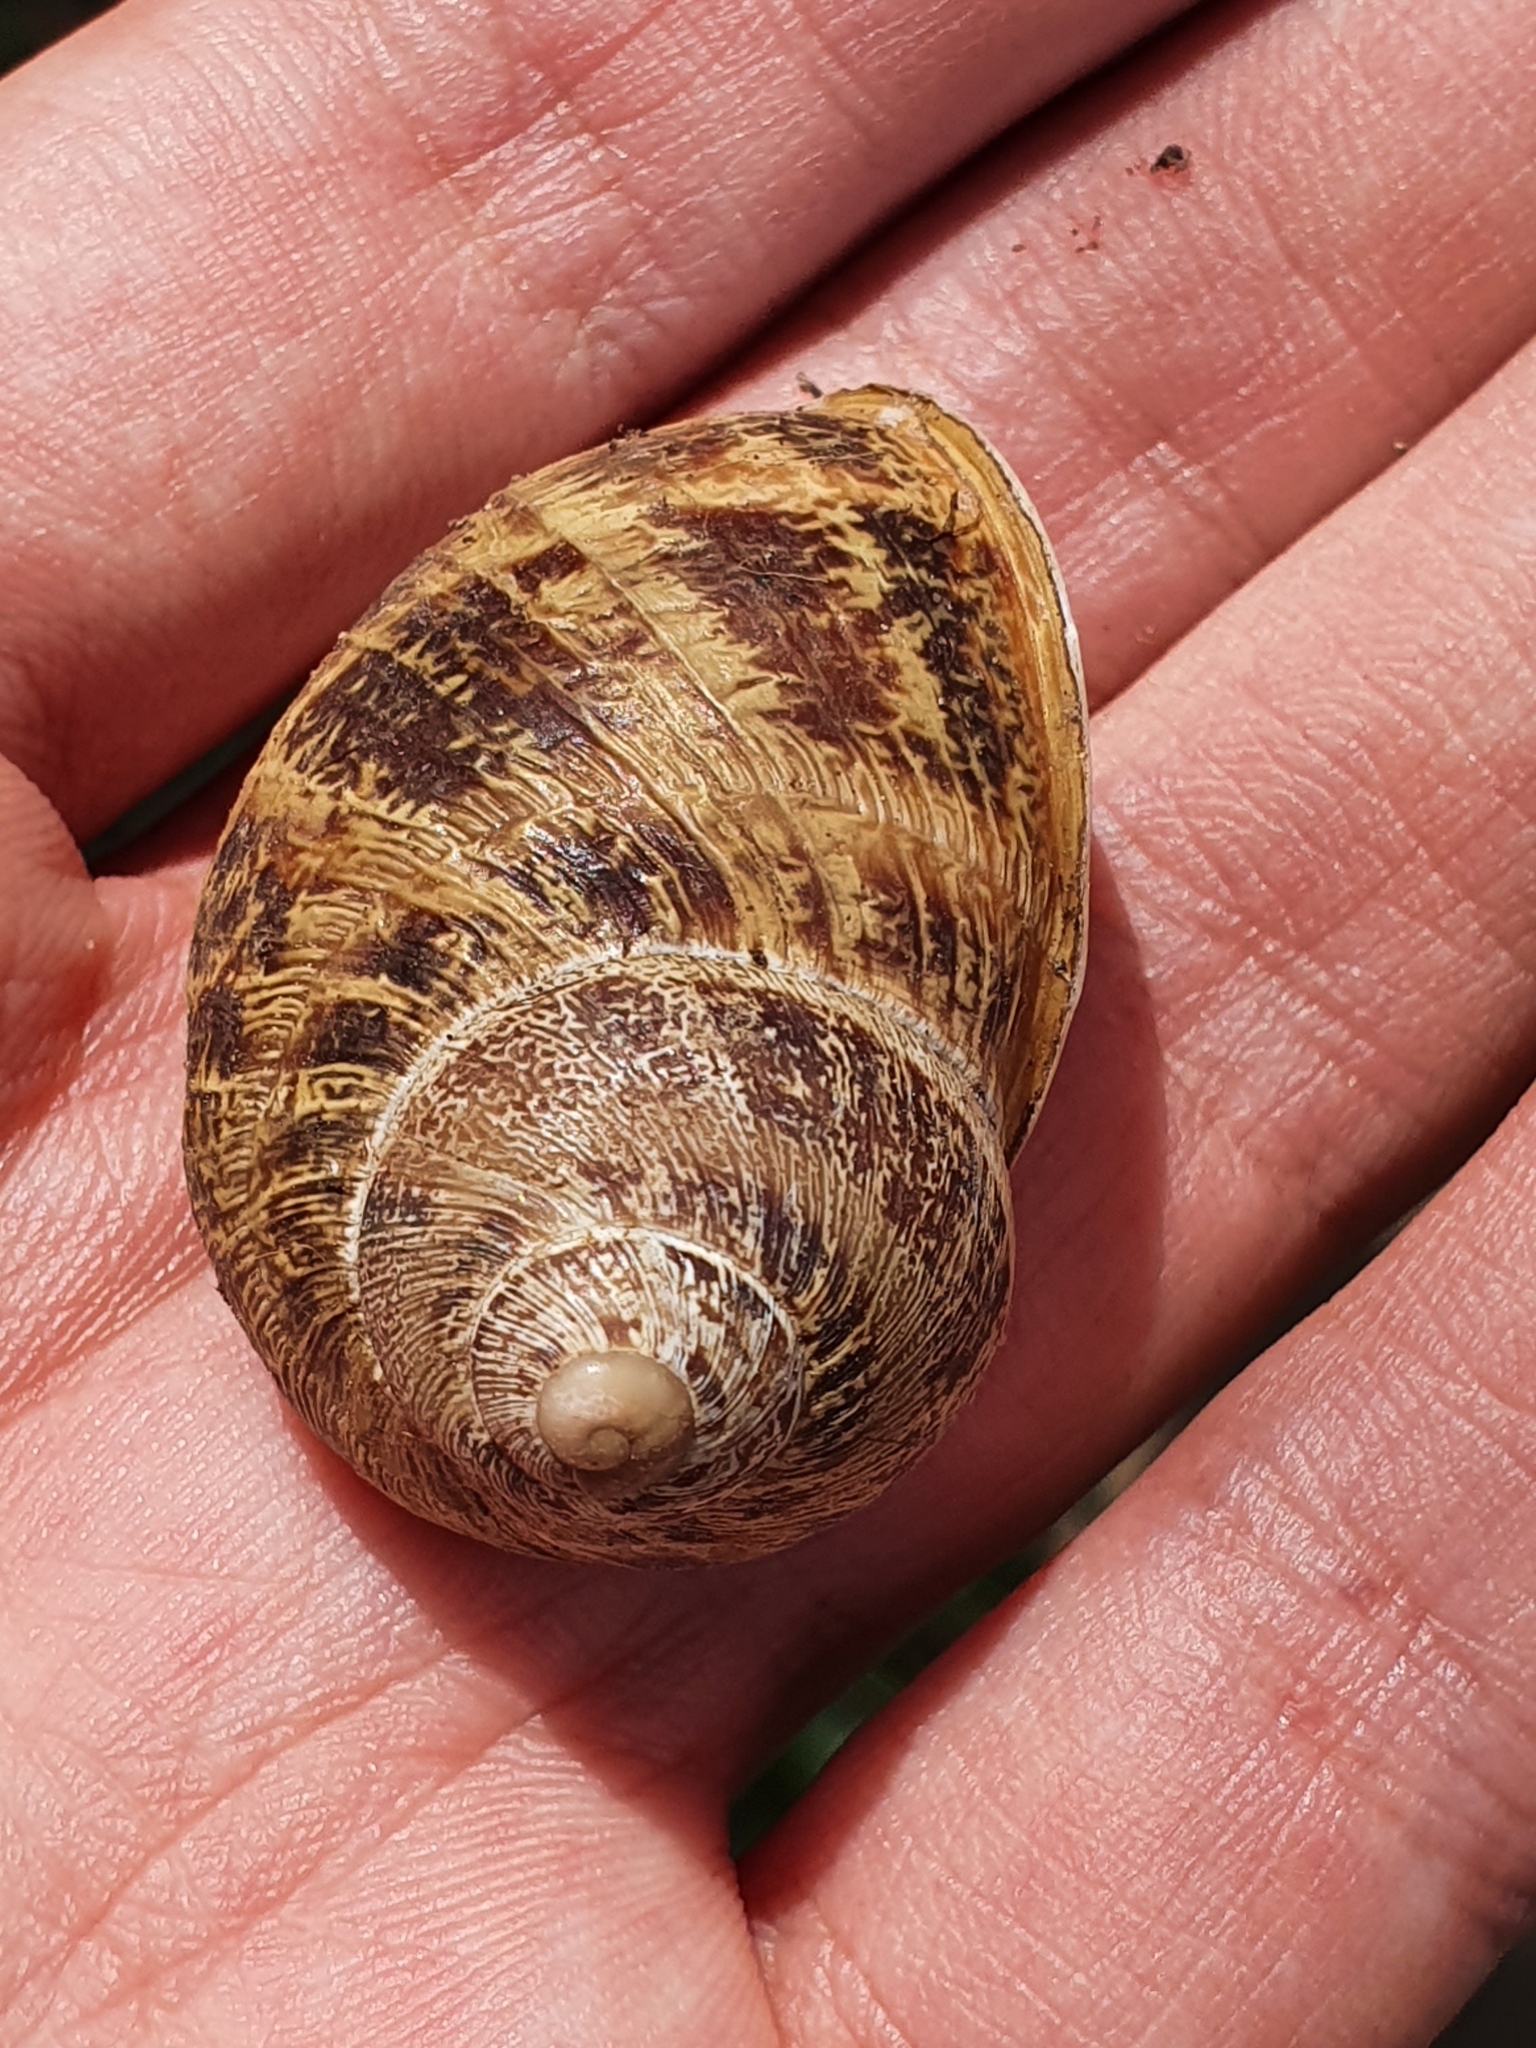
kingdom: Animalia
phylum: Mollusca
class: Gastropoda
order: Stylommatophora
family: Helicidae
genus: Cornu
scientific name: Cornu aspersum
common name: Brown garden snail
